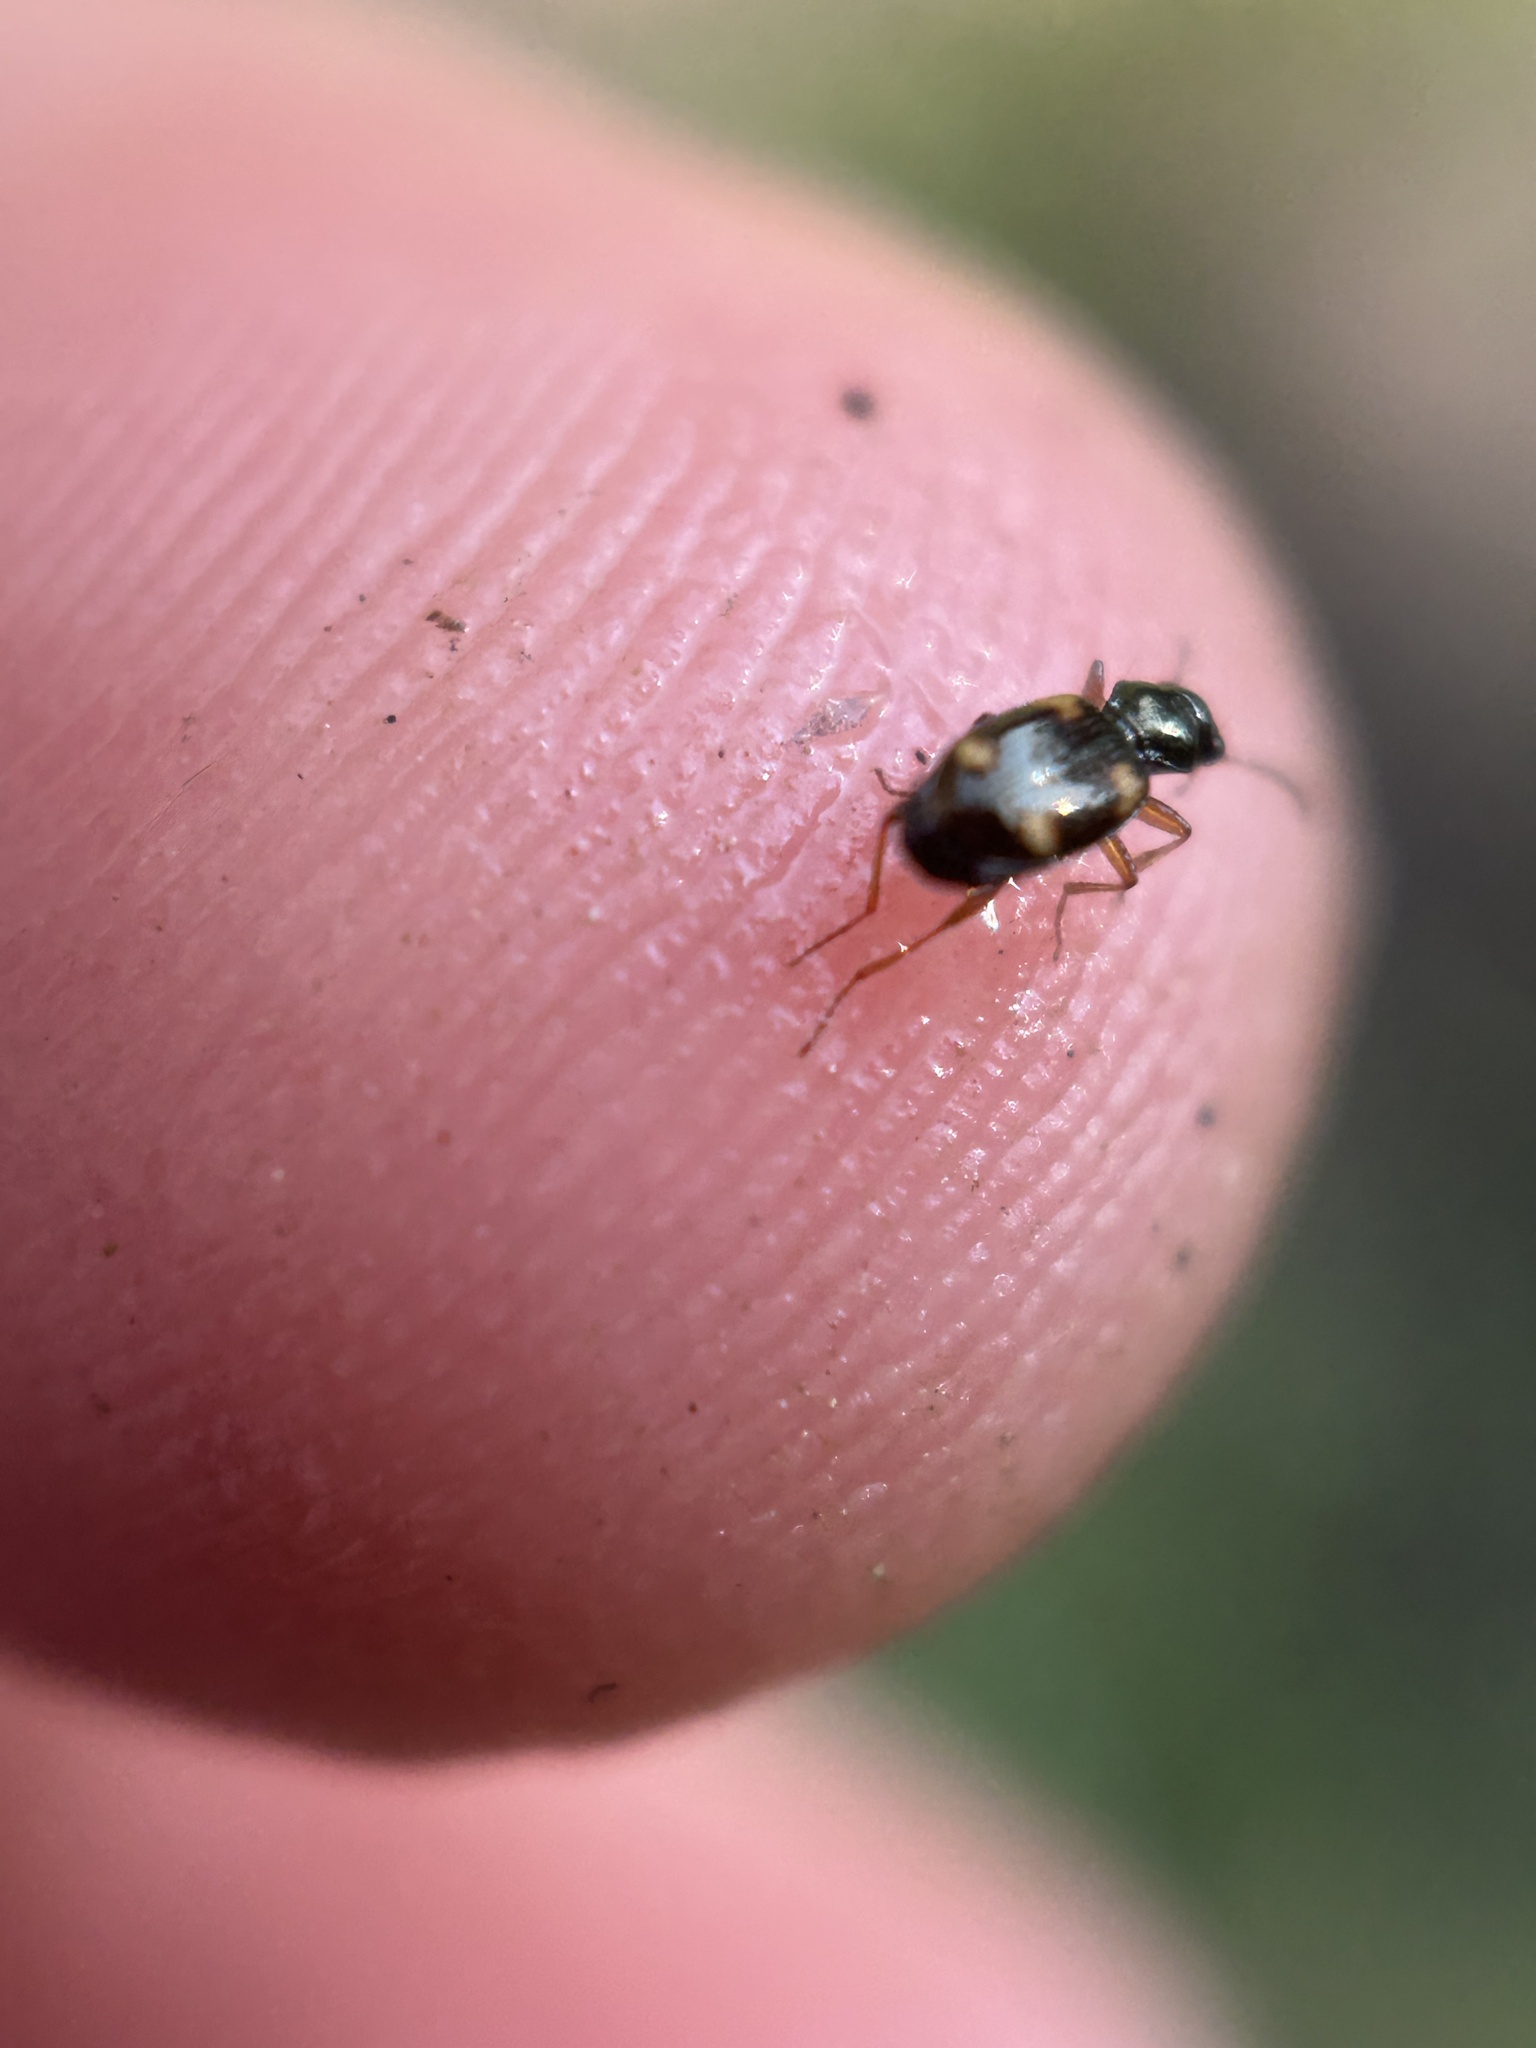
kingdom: Animalia
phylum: Arthropoda
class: Insecta
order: Coleoptera
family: Carabidae
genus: Bembidion
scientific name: Bembidion quadrimaculatum
